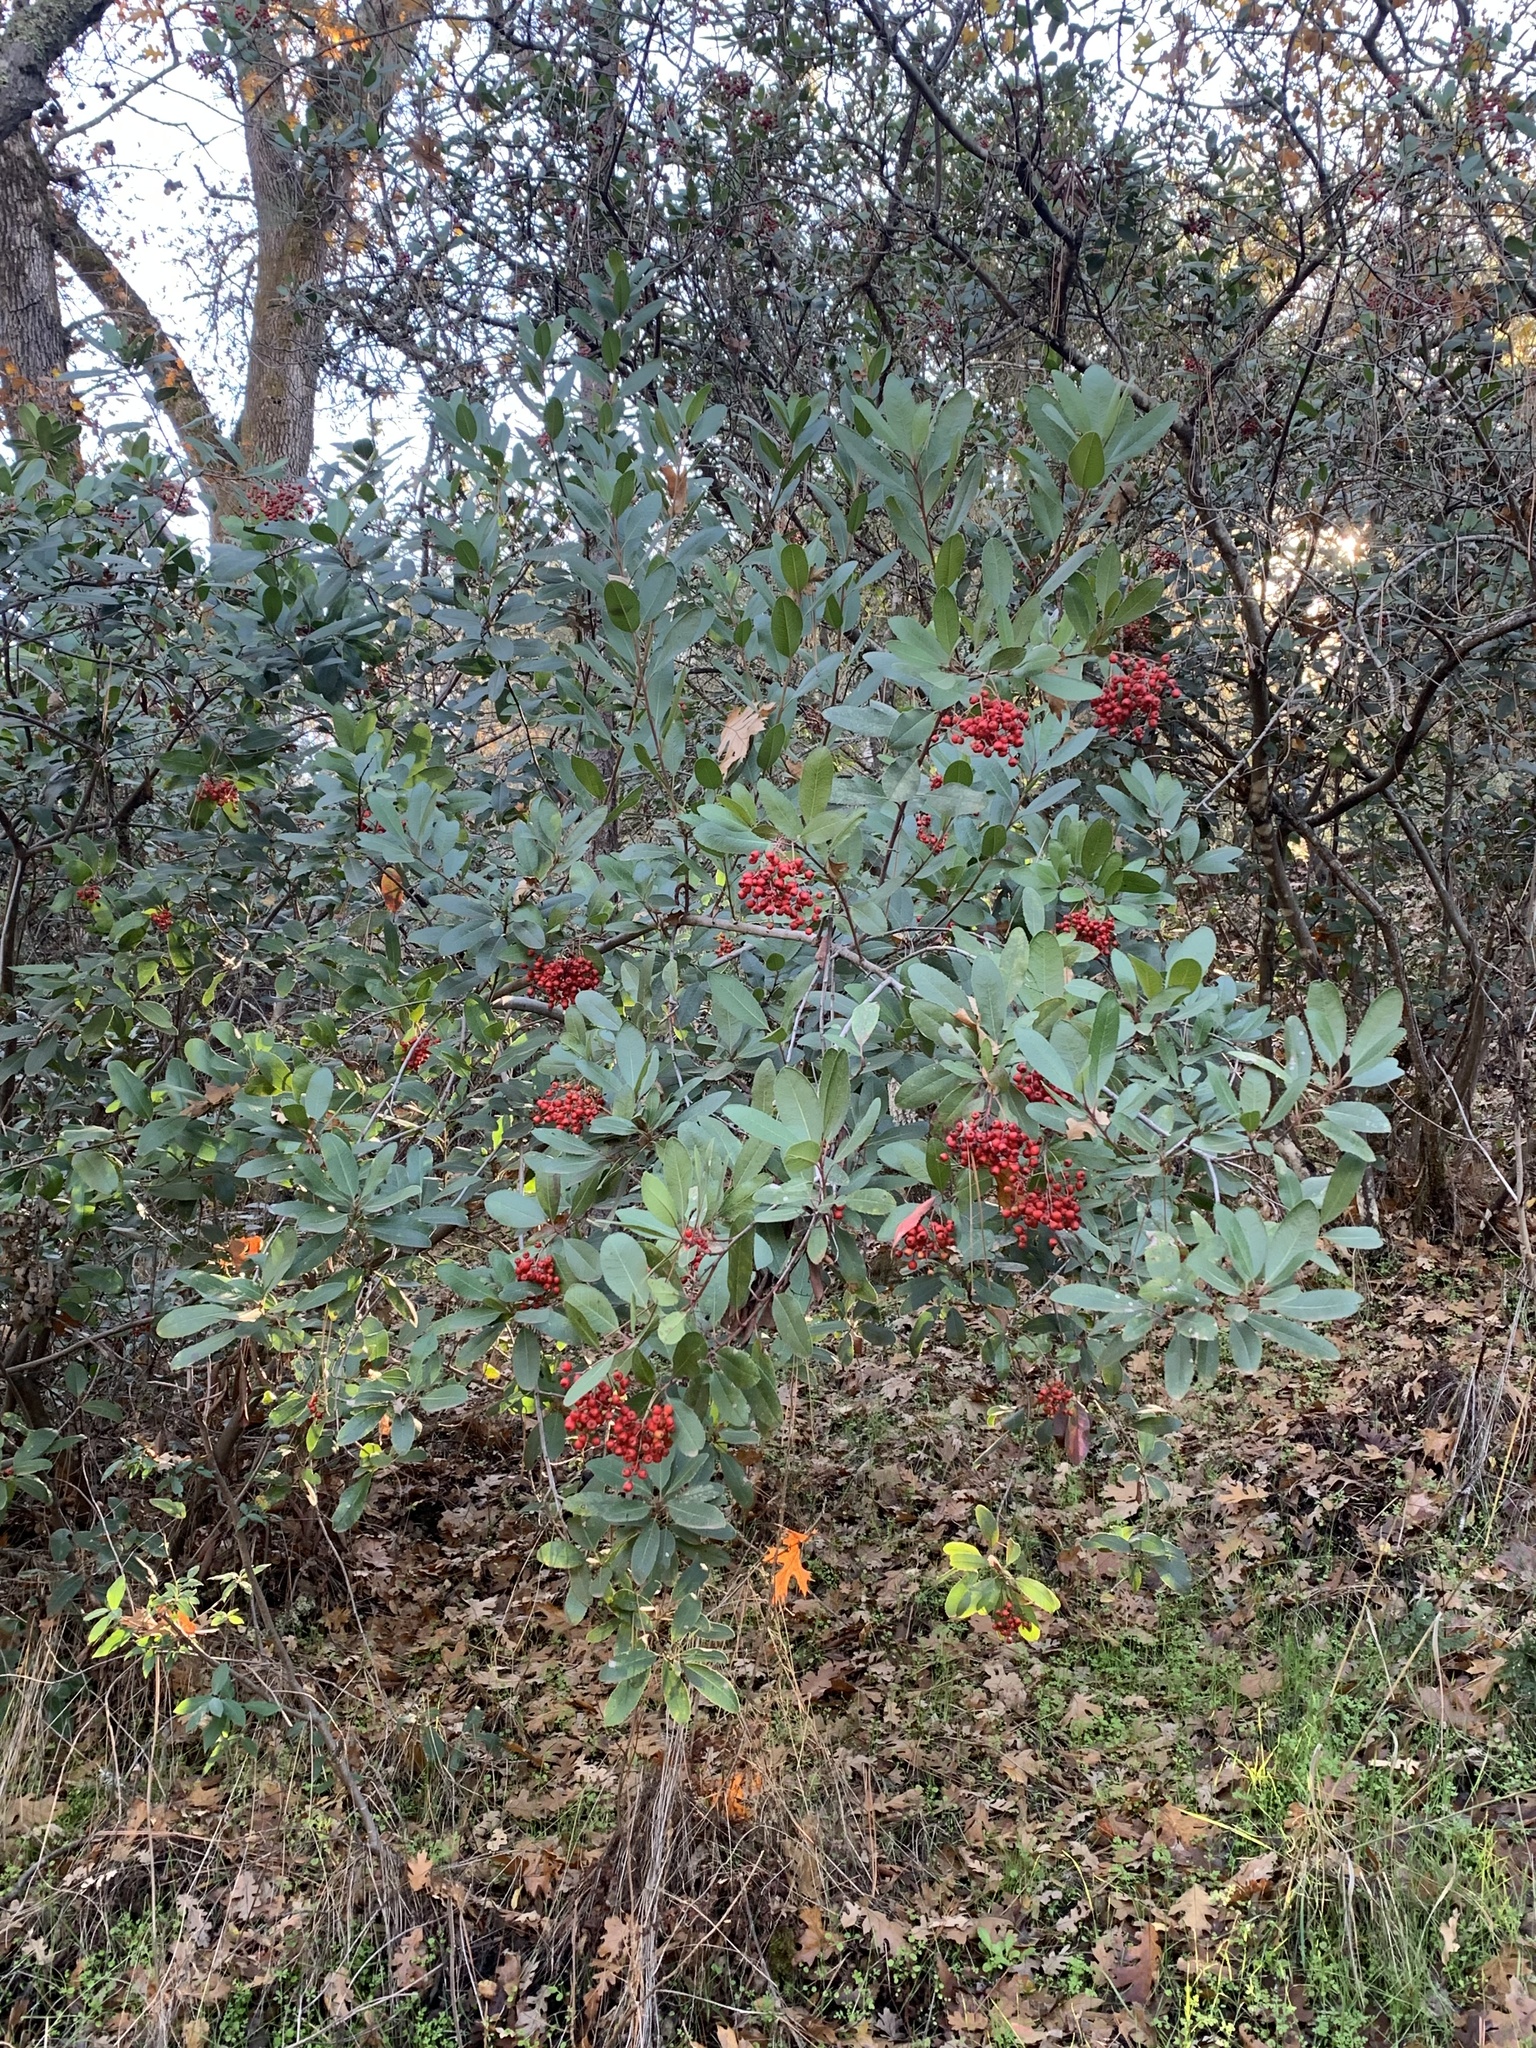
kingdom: Plantae
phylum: Tracheophyta
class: Magnoliopsida
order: Rosales
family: Rosaceae
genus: Heteromeles
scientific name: Heteromeles arbutifolia
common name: California-holly
